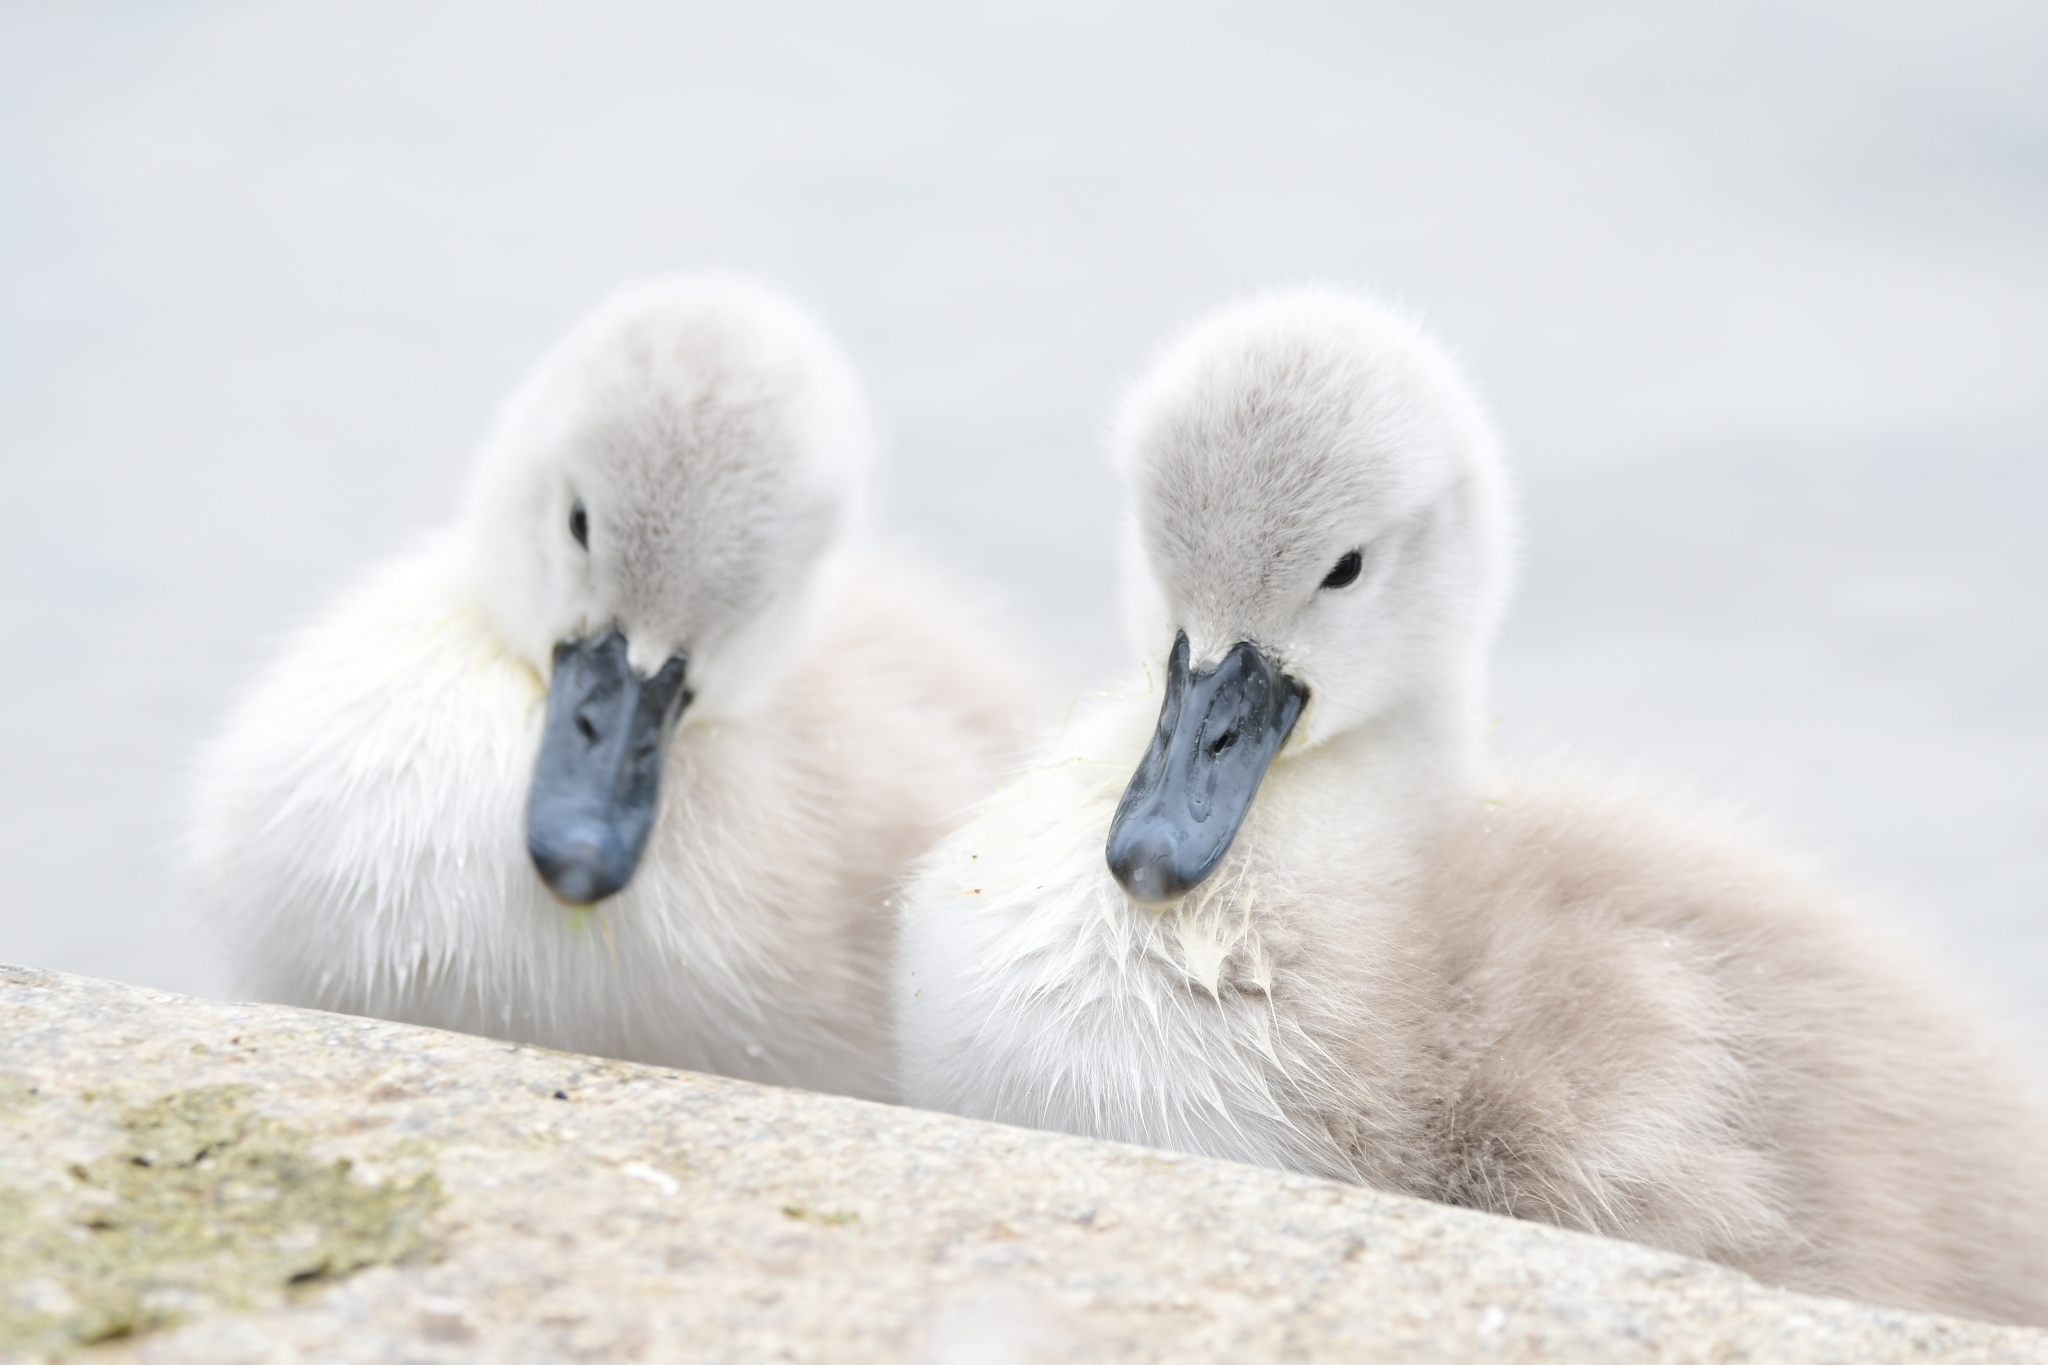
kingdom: Animalia
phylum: Chordata
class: Aves
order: Anseriformes
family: Anatidae
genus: Cygnus
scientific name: Cygnus olor
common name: Mute swan
